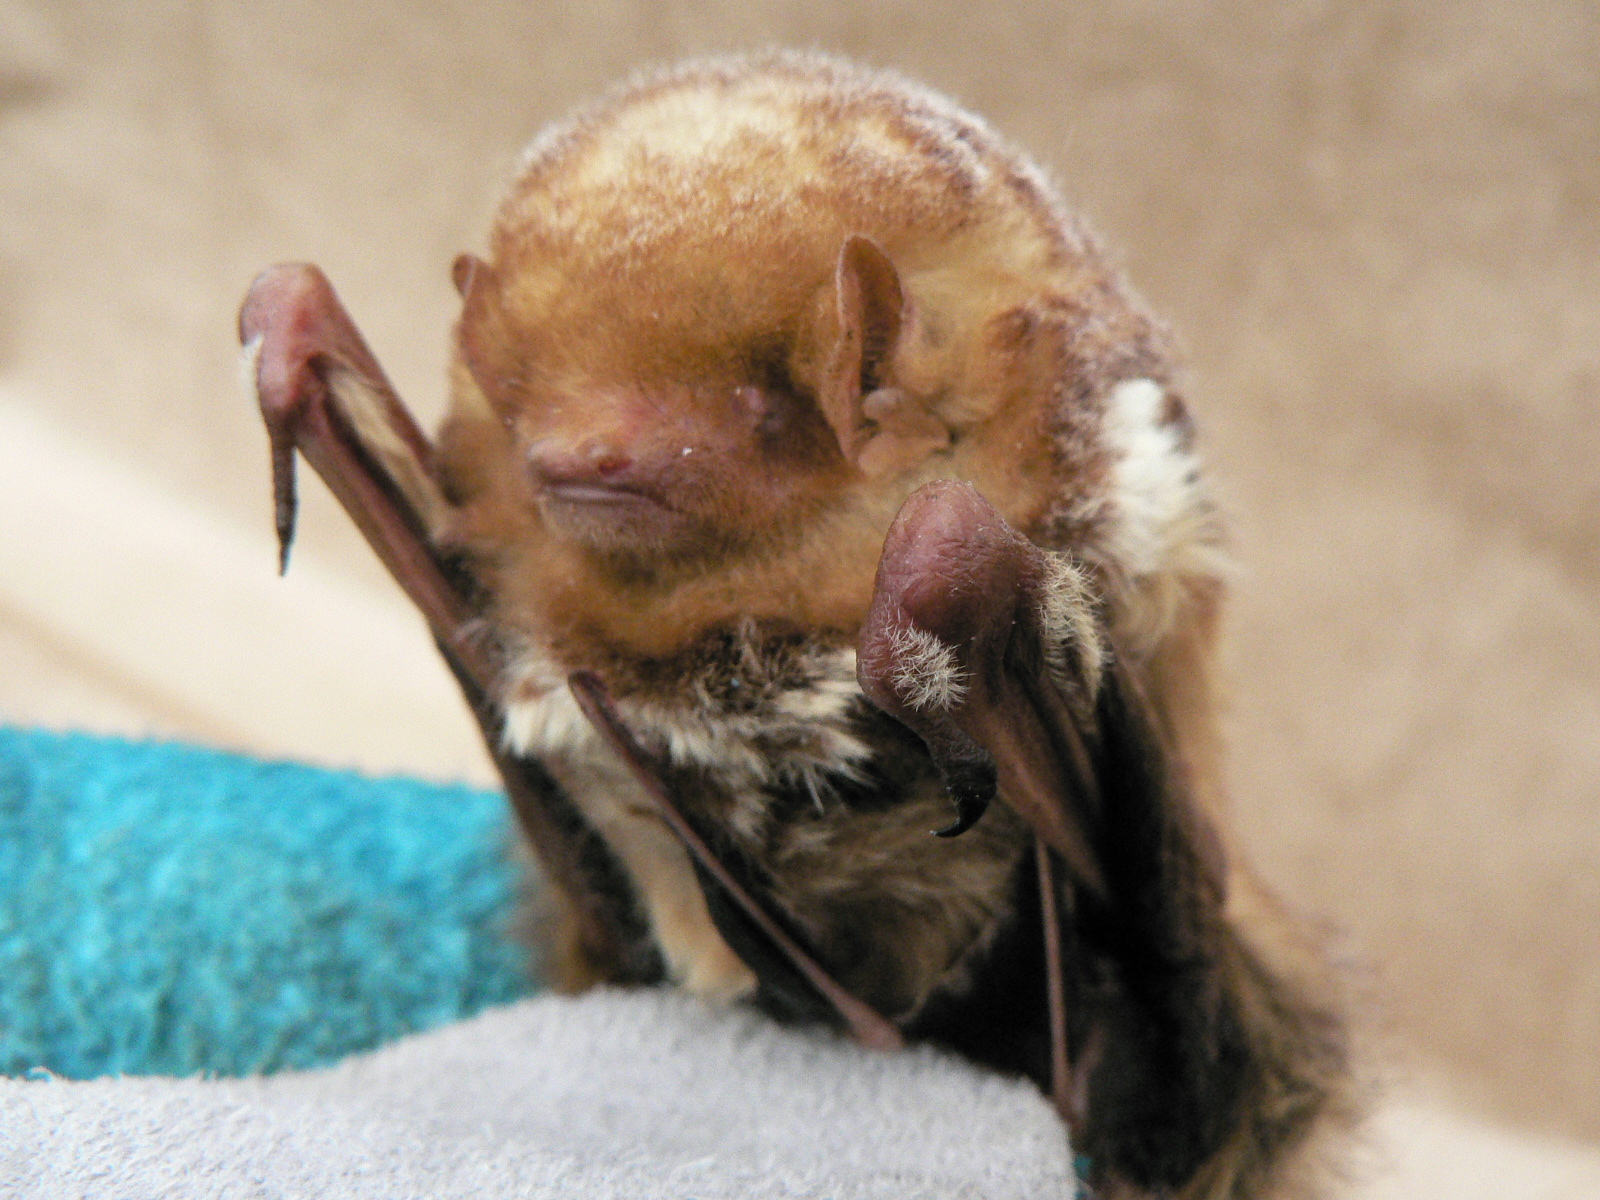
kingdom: Animalia
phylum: Chordata
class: Mammalia
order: Chiroptera
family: Vespertilionidae
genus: Lasiurus
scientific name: Lasiurus borealis
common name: Eastern red bat
